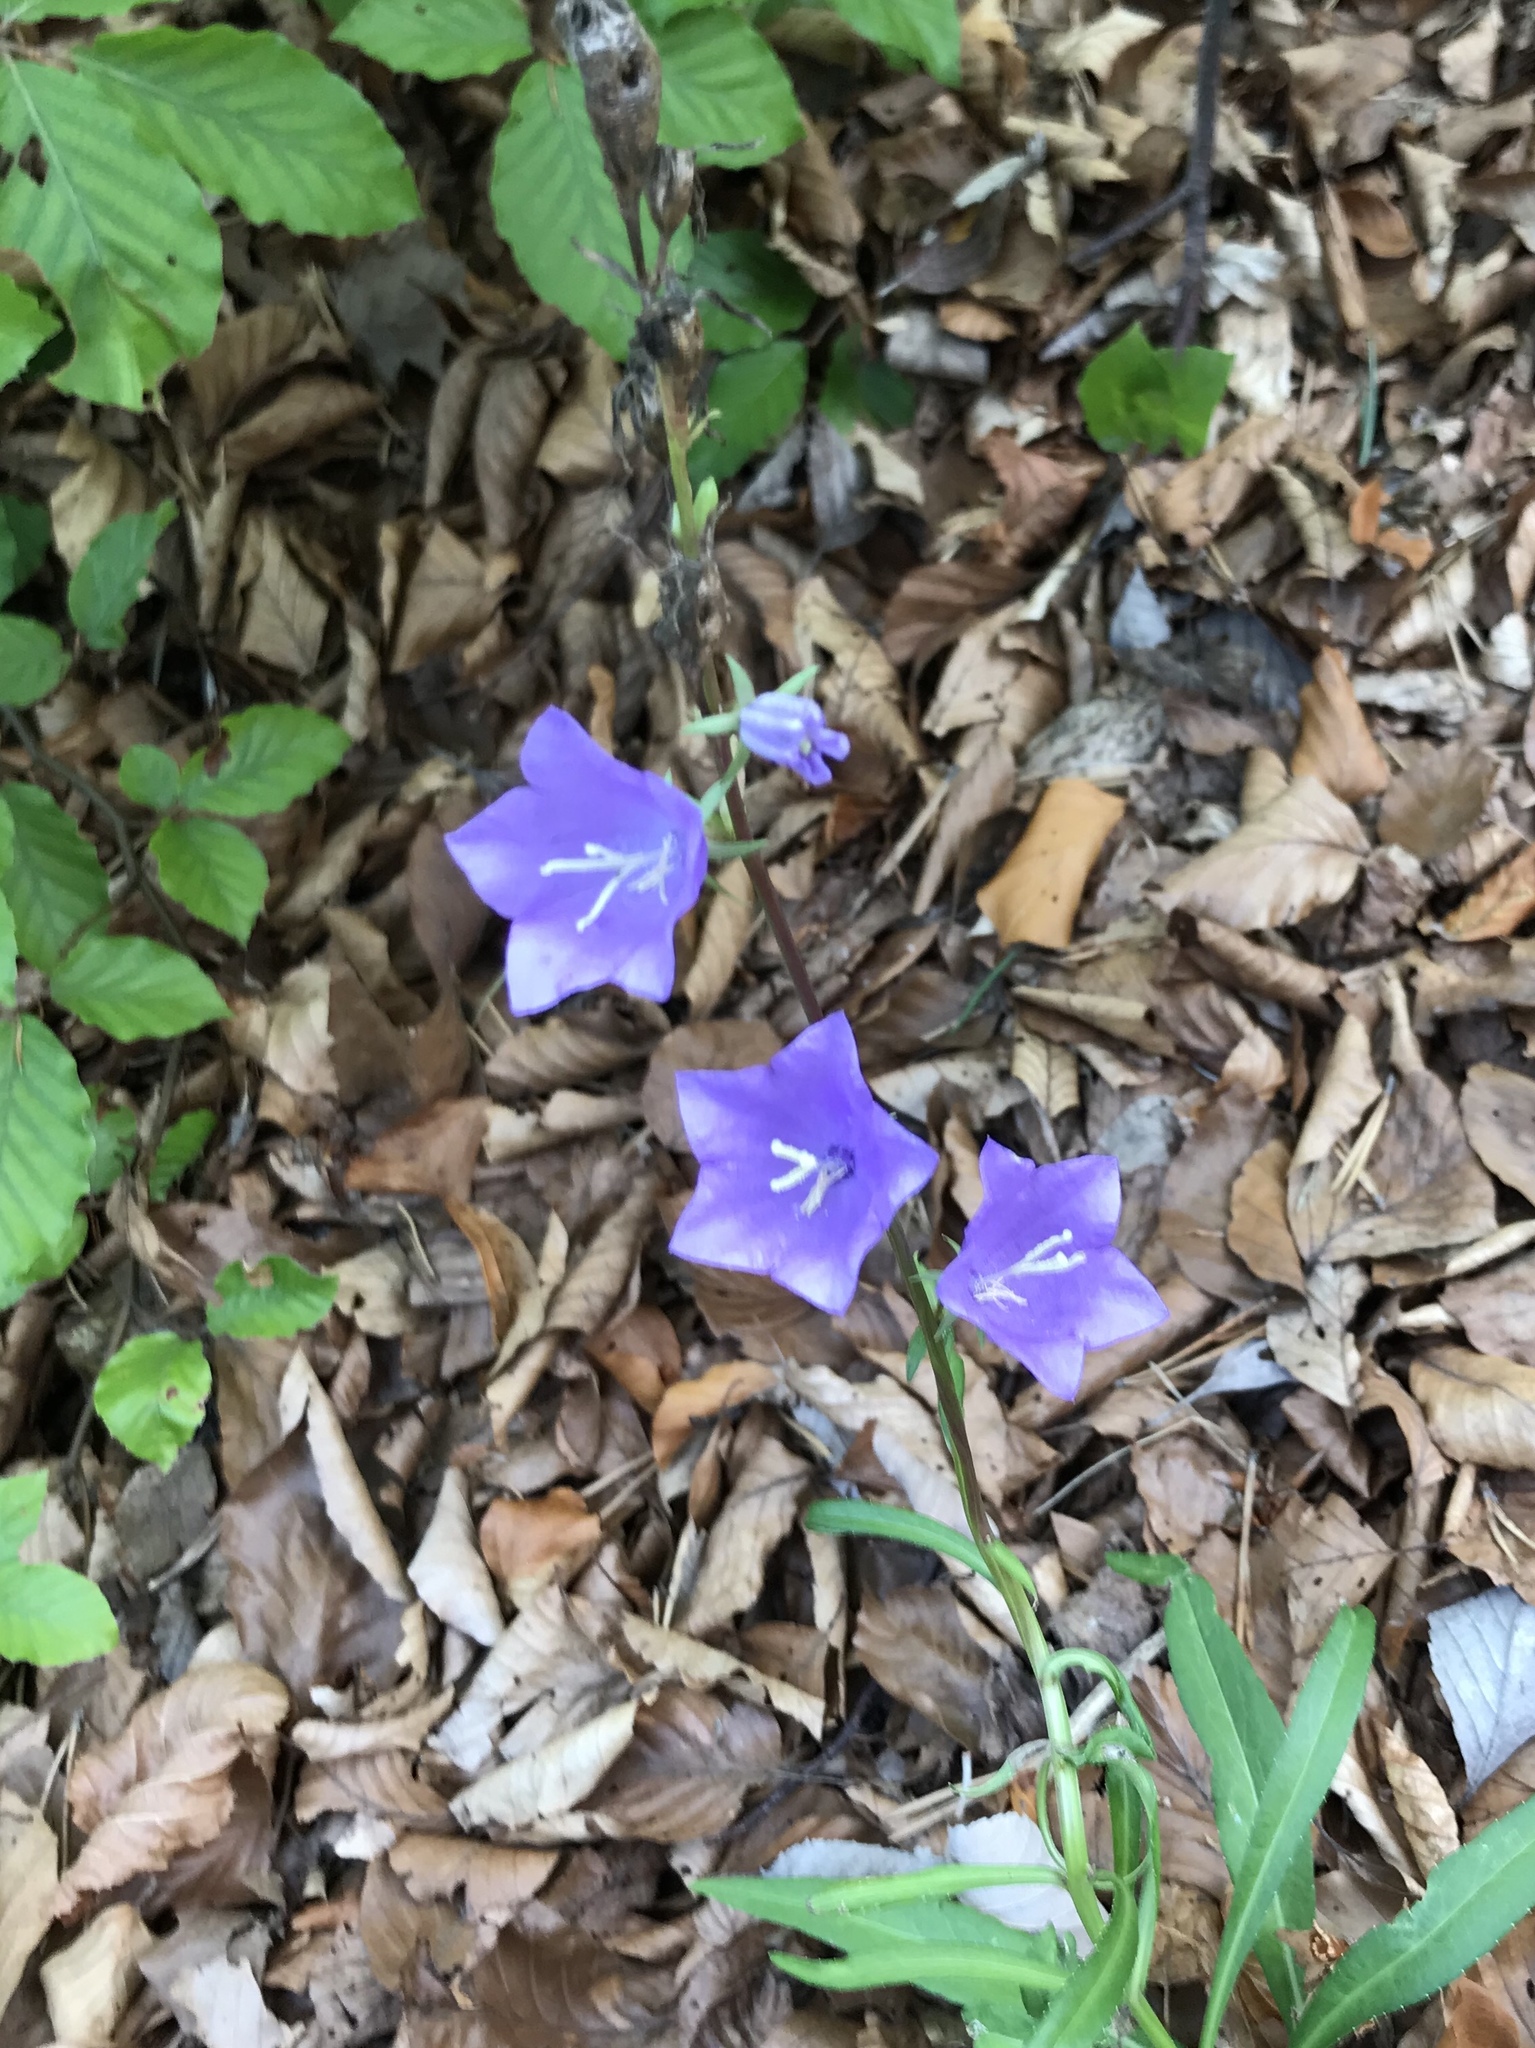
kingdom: Plantae
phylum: Tracheophyta
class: Magnoliopsida
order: Asterales
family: Campanulaceae
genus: Campanula
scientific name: Campanula persicifolia
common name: Peach-leaved bellflower
